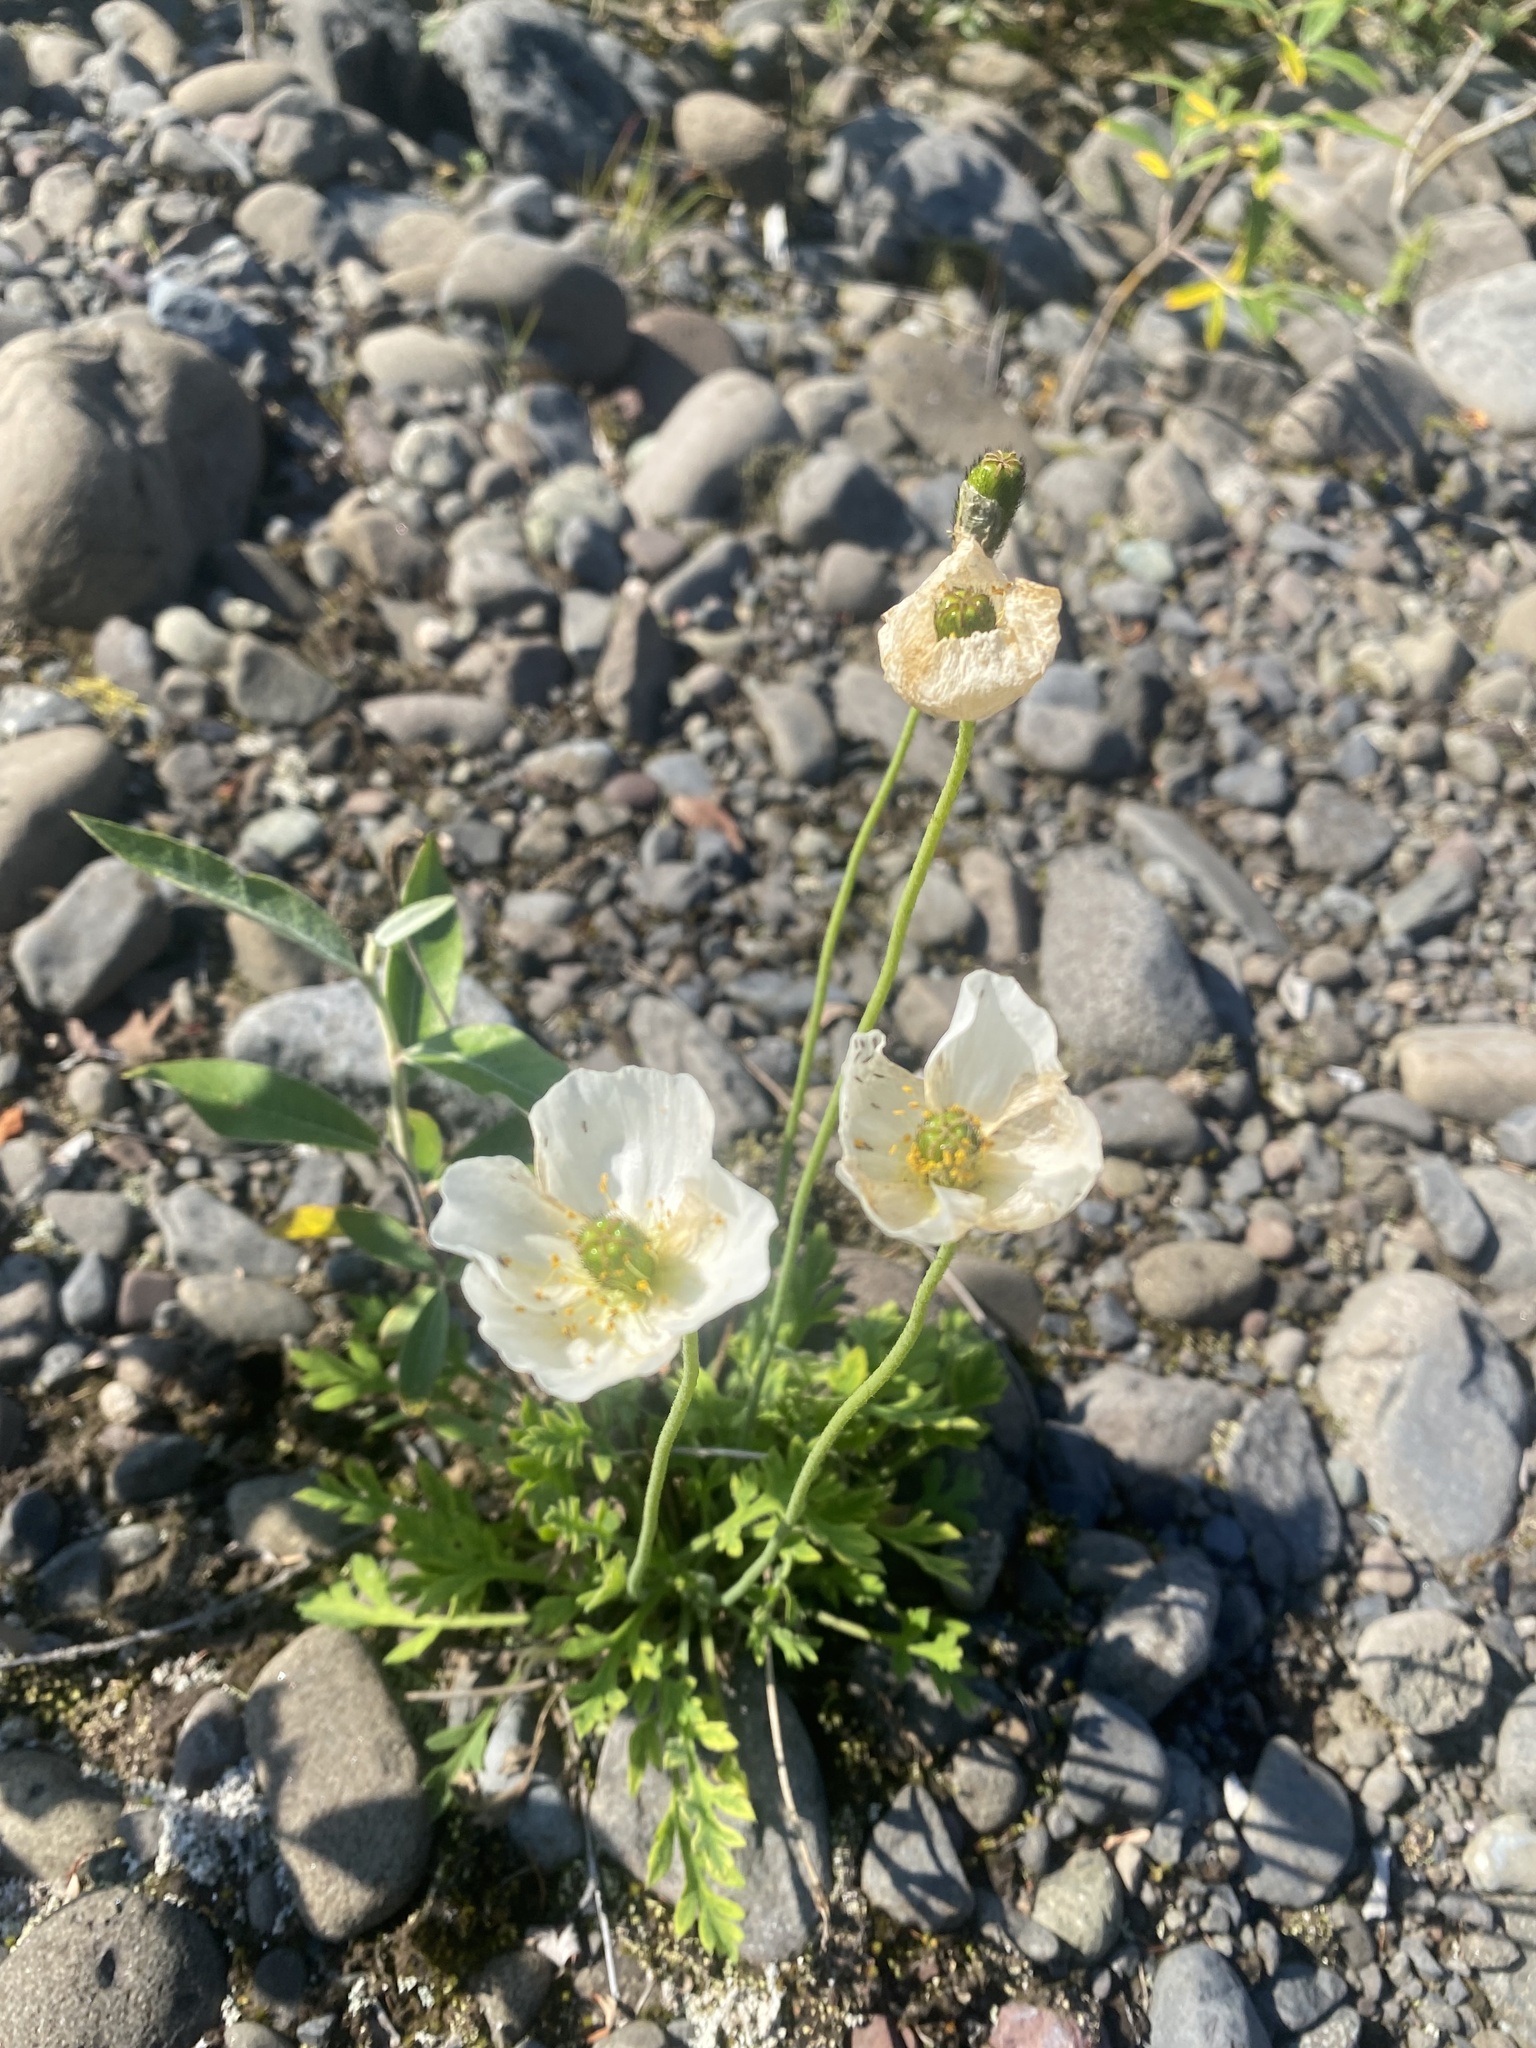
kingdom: Plantae
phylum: Tracheophyta
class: Magnoliopsida
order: Ranunculales
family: Papaveraceae
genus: Papaver
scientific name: Papaver nudicaule
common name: Arctic poppy
